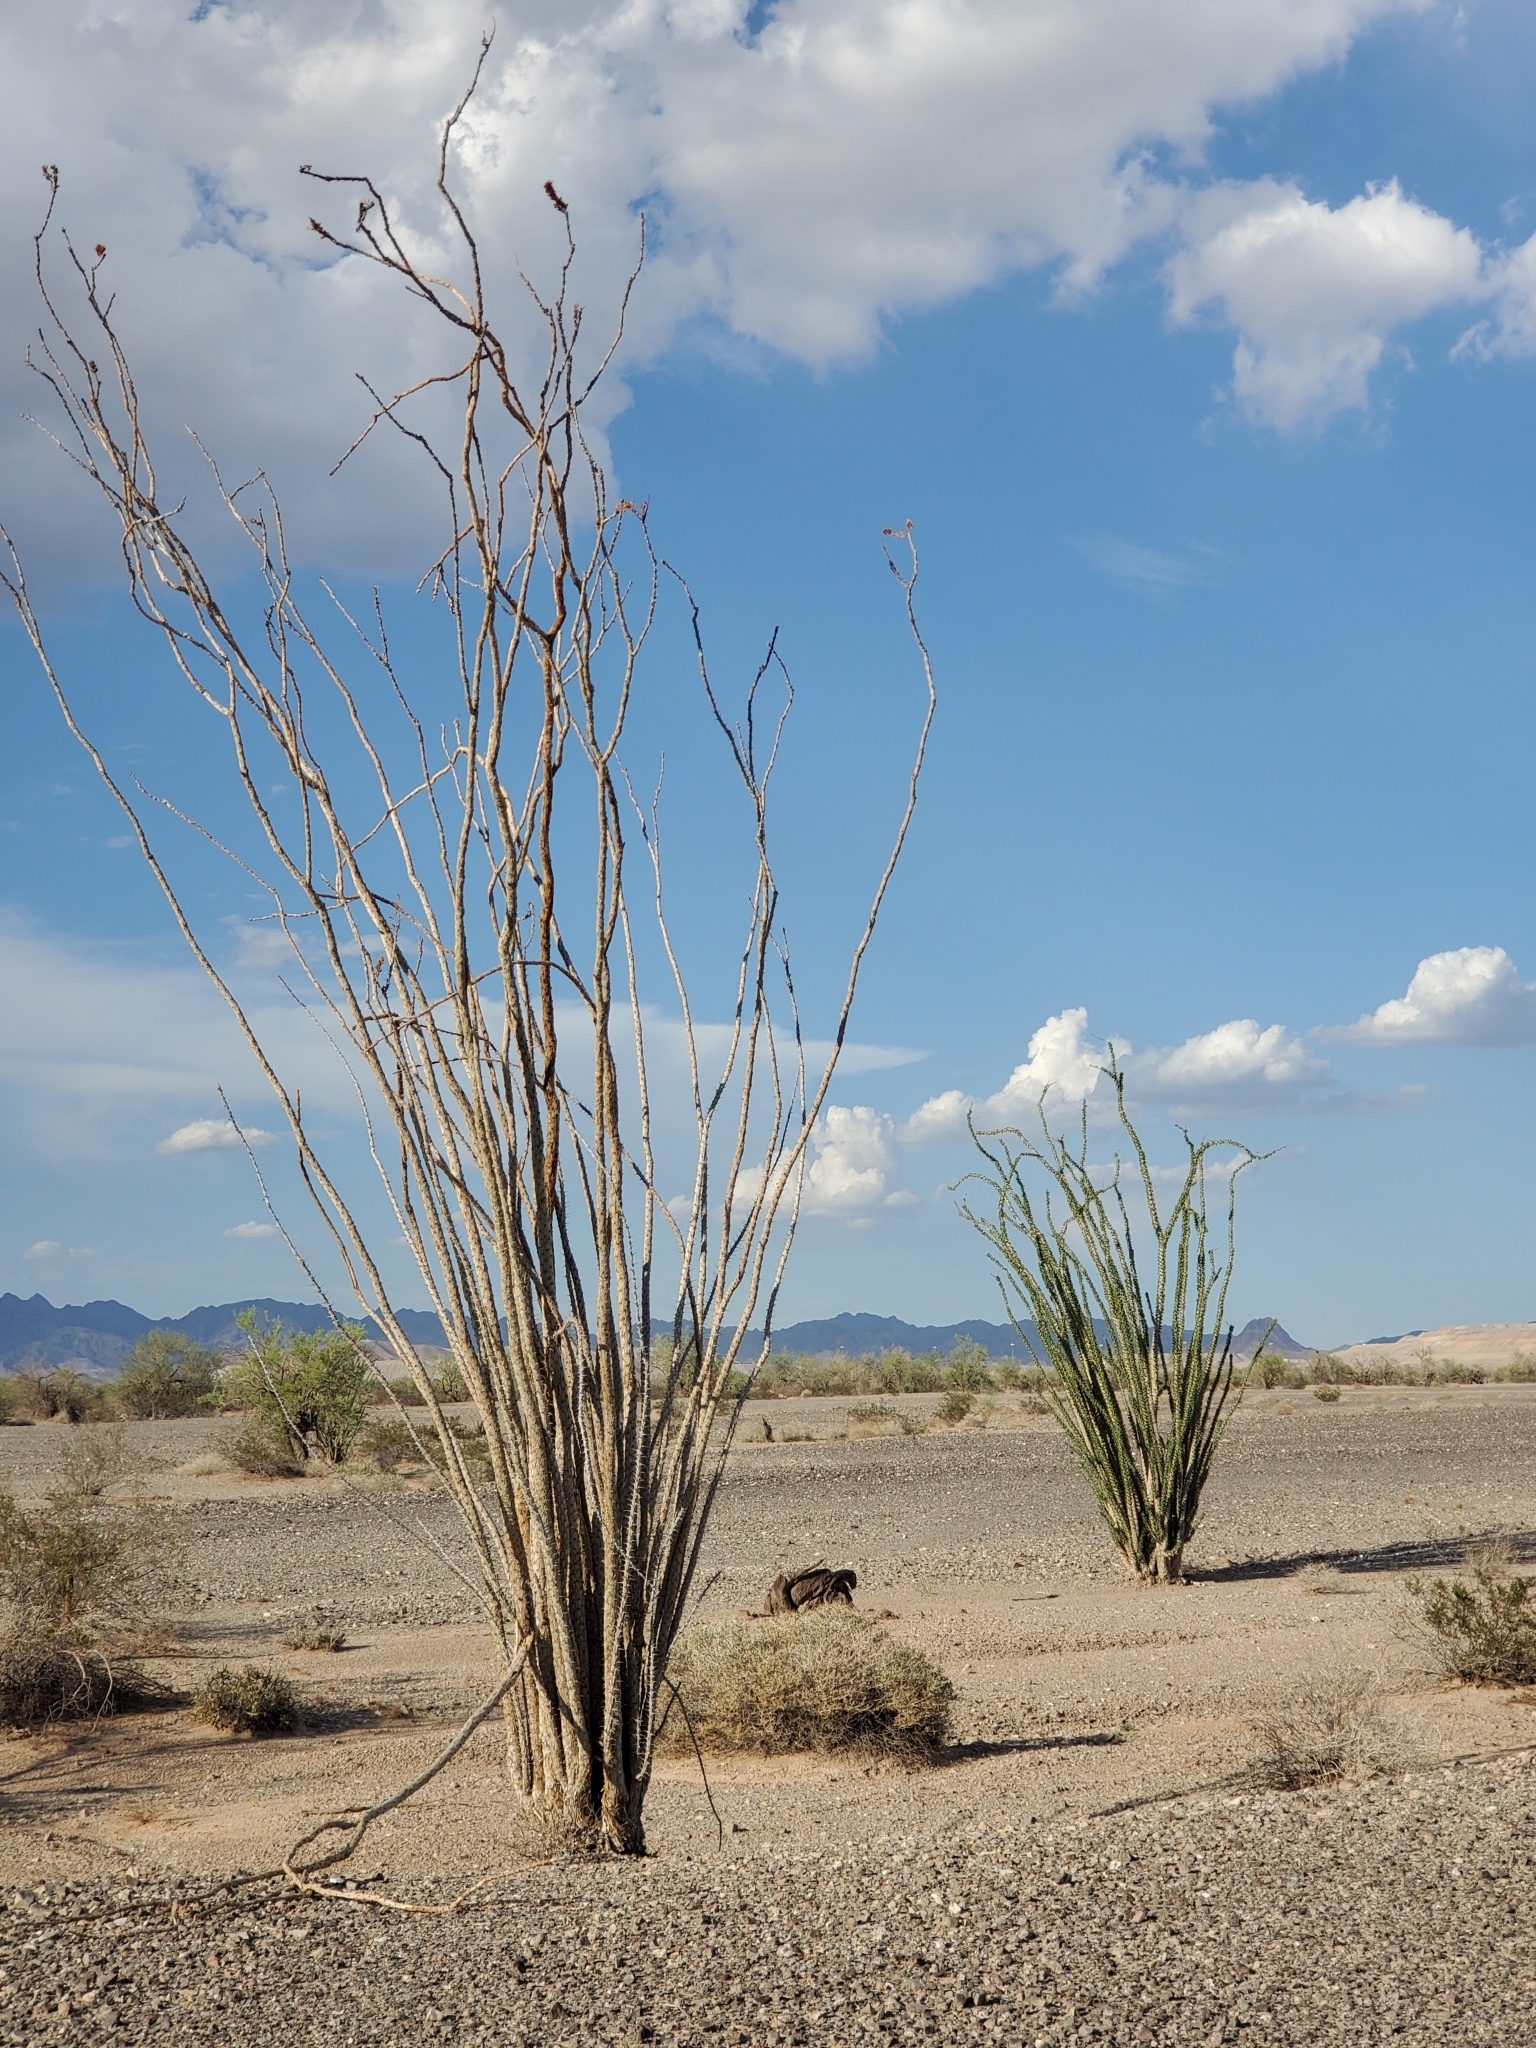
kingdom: Plantae
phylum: Tracheophyta
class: Magnoliopsida
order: Ericales
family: Fouquieriaceae
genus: Fouquieria
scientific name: Fouquieria splendens
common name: Vine-cactus
